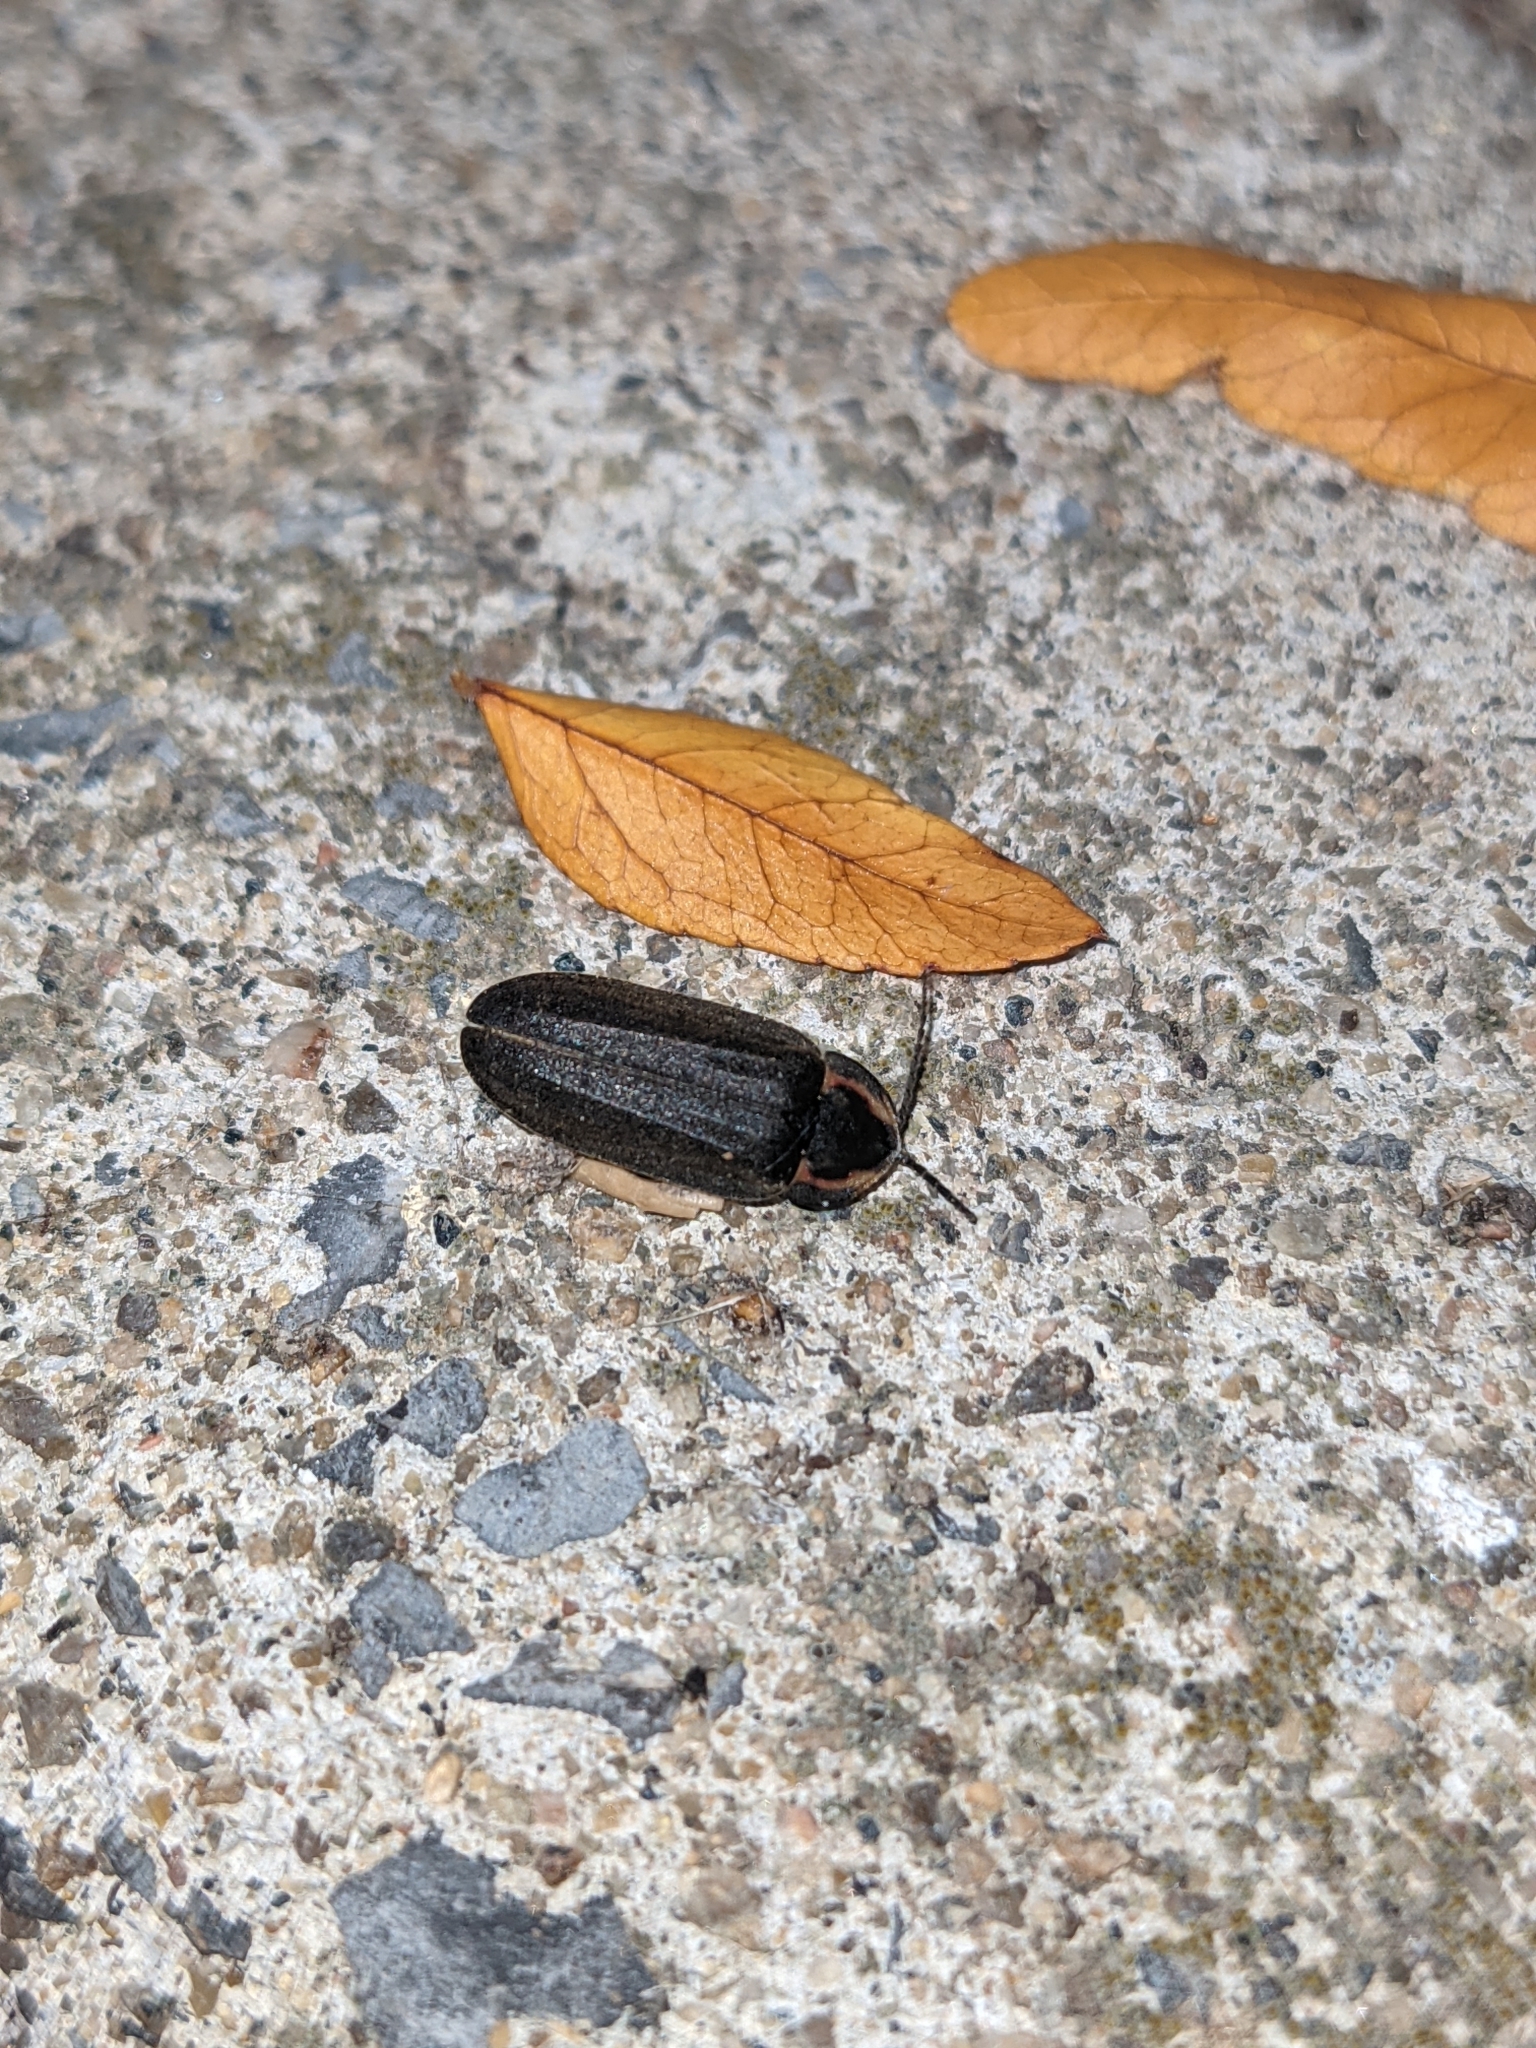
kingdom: Animalia
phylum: Arthropoda
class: Insecta
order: Coleoptera
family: Lampyridae
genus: Photinus
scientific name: Photinus corrusca
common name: Winter firefly
